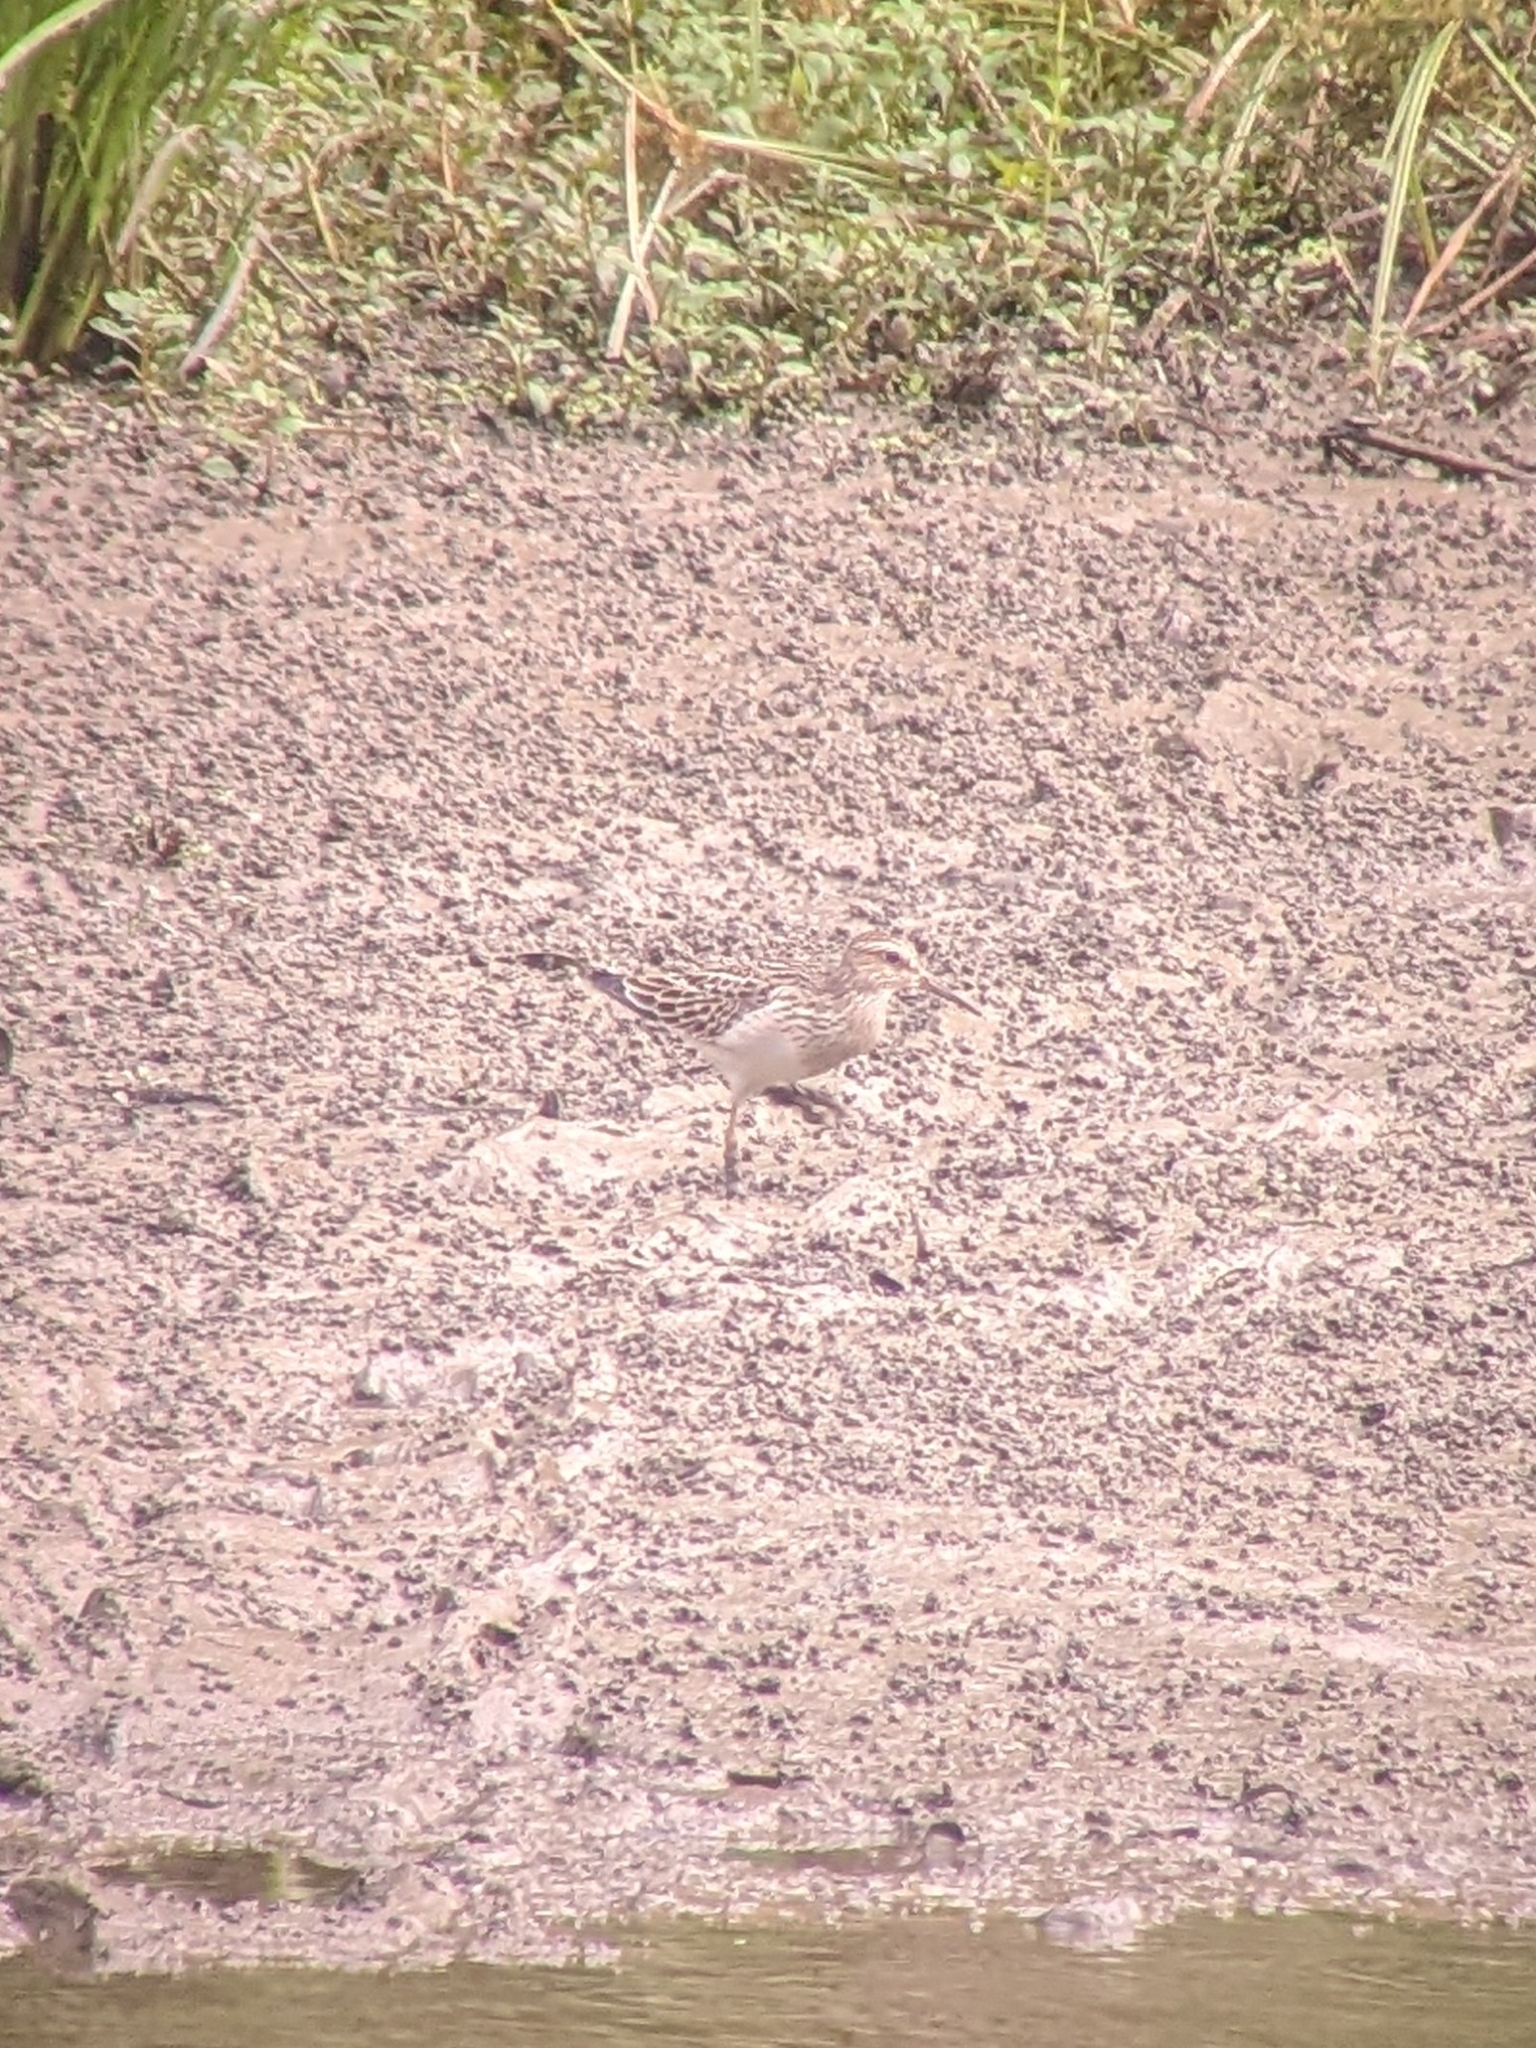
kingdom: Animalia
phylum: Chordata
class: Aves
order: Charadriiformes
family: Scolopacidae
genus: Calidris
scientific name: Calidris melanotos
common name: Pectoral sandpiper
